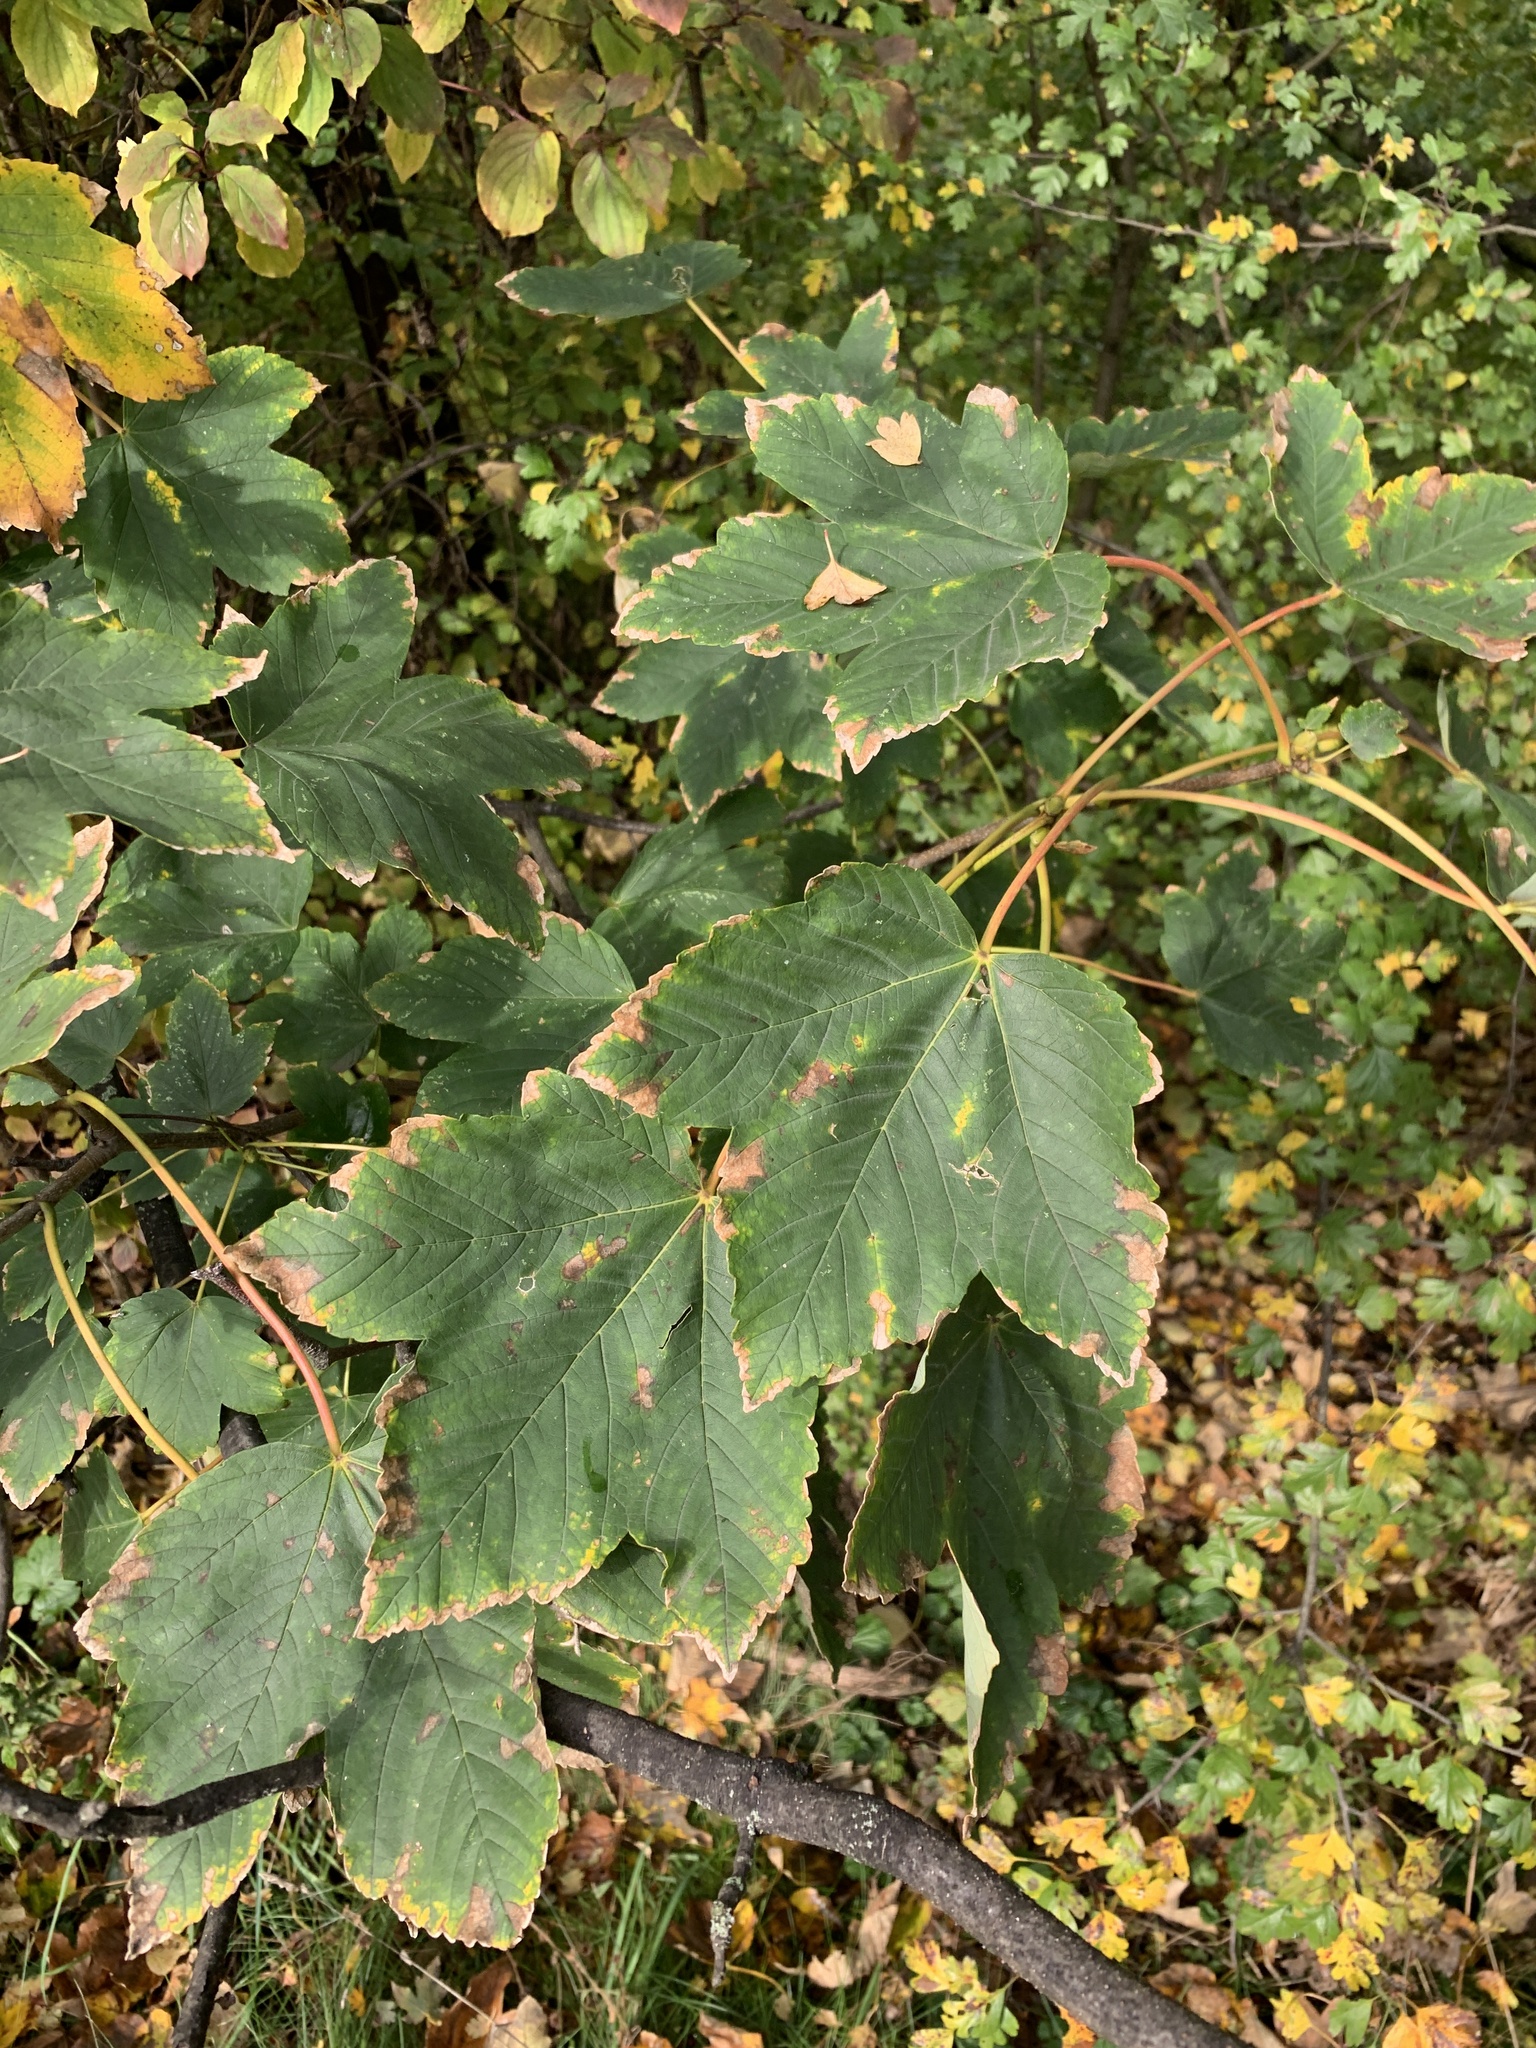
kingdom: Plantae
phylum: Tracheophyta
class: Magnoliopsida
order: Sapindales
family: Sapindaceae
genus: Acer
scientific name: Acer pseudoplatanus
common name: Sycamore
